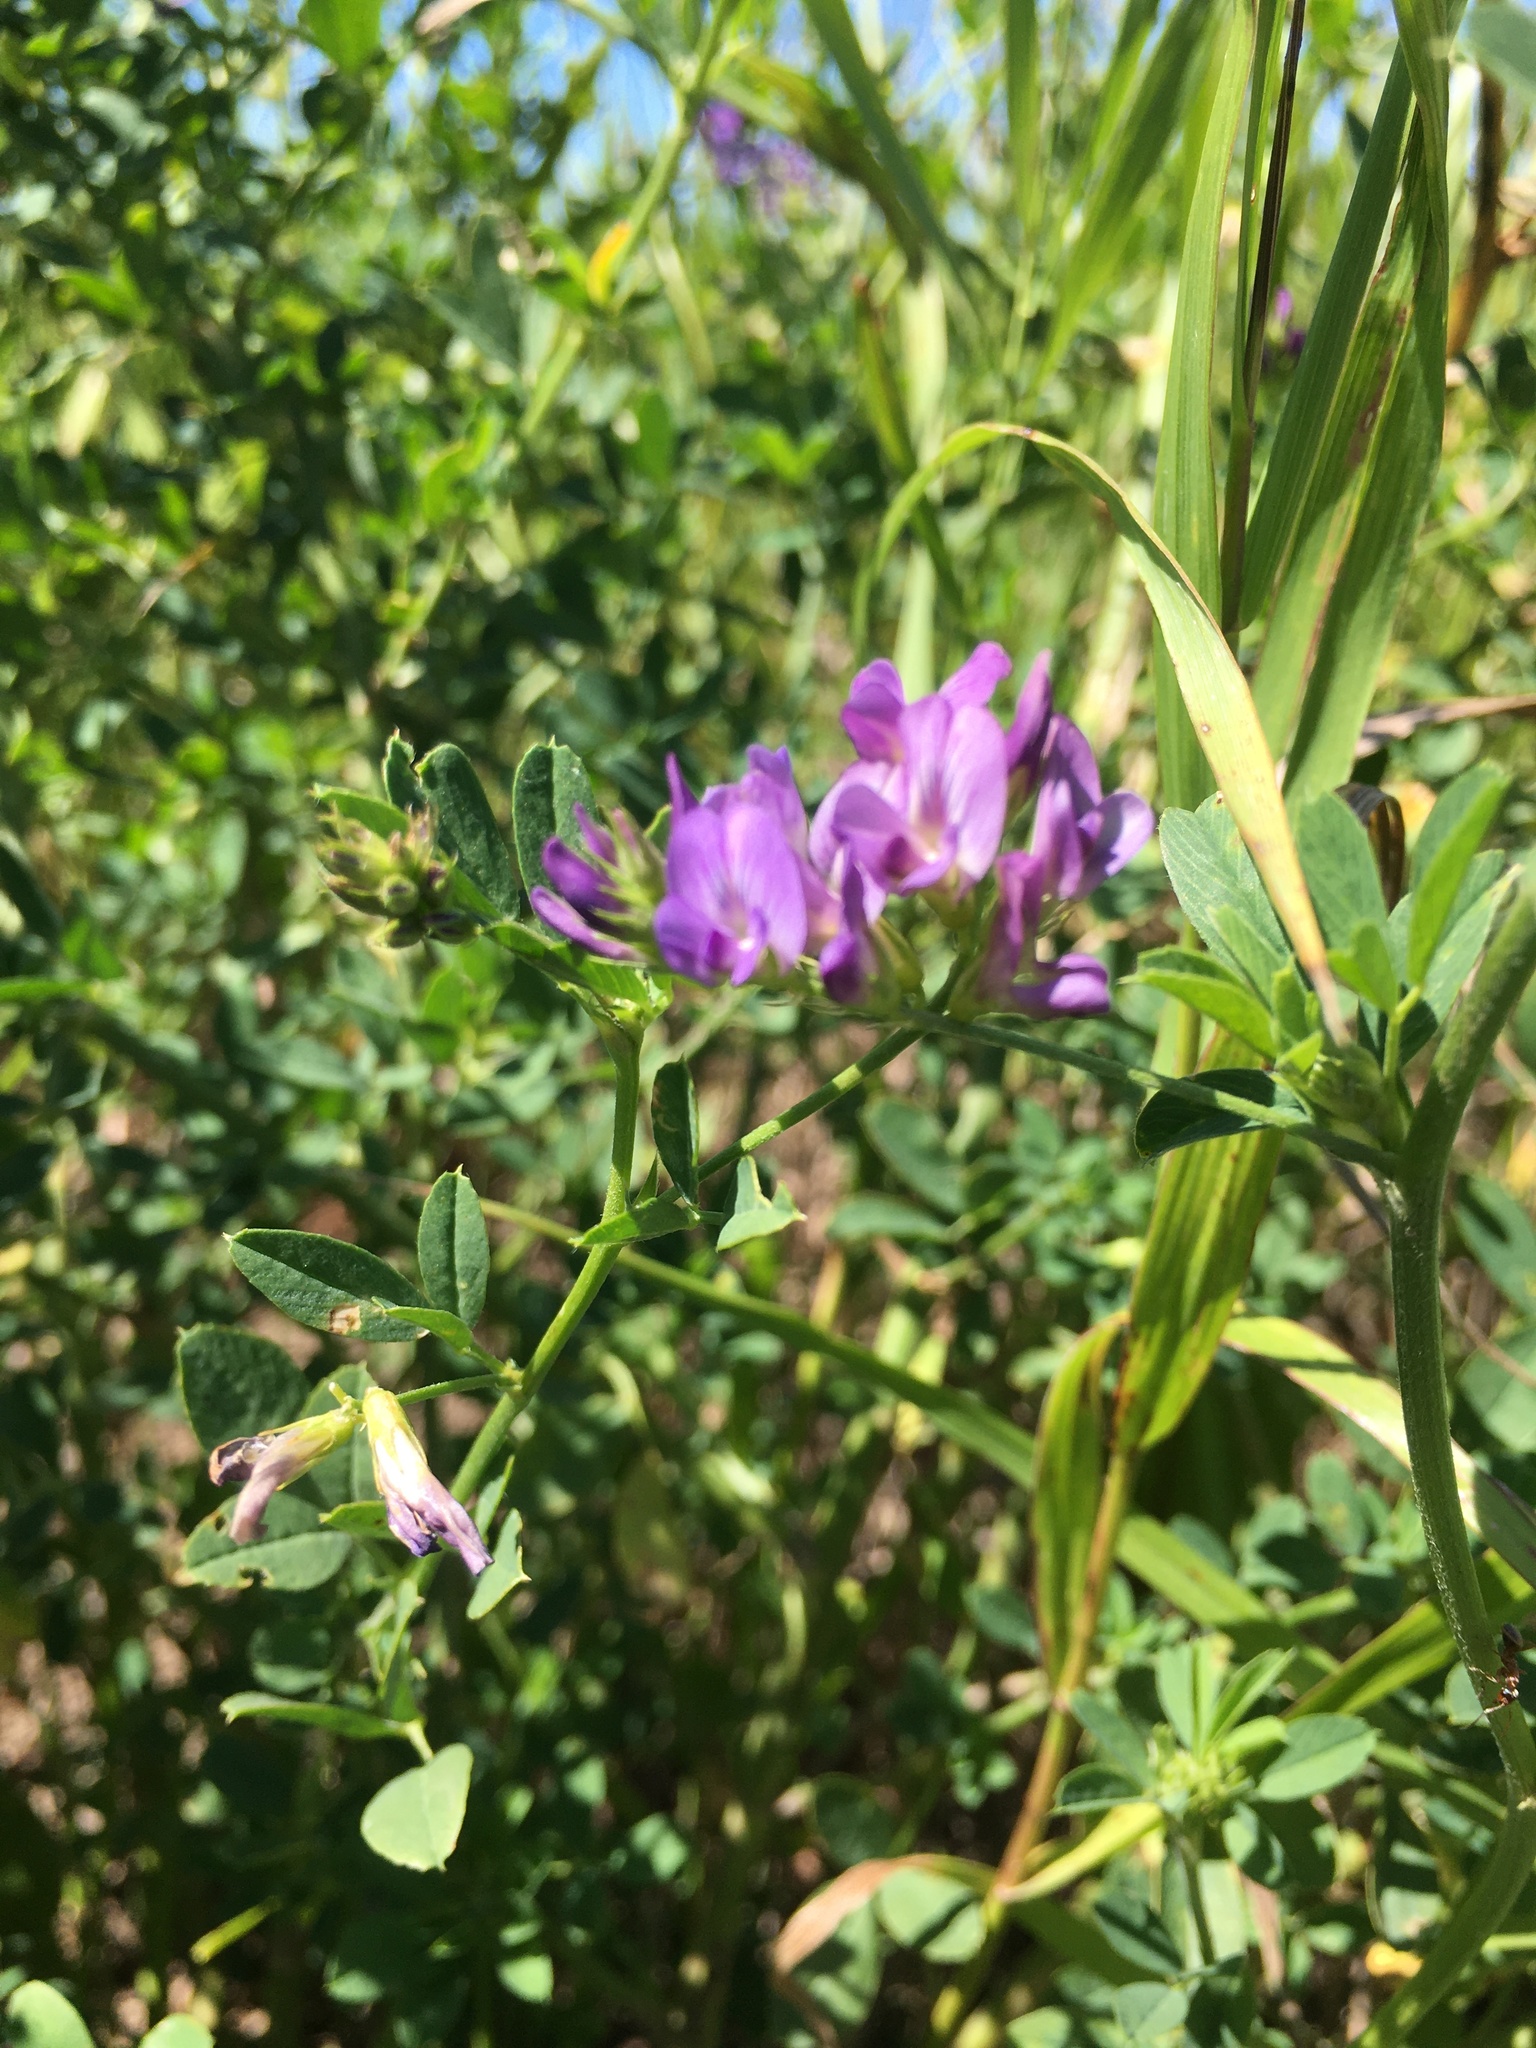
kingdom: Plantae
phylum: Tracheophyta
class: Magnoliopsida
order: Fabales
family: Fabaceae
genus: Medicago
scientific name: Medicago sativa
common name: Alfalfa
